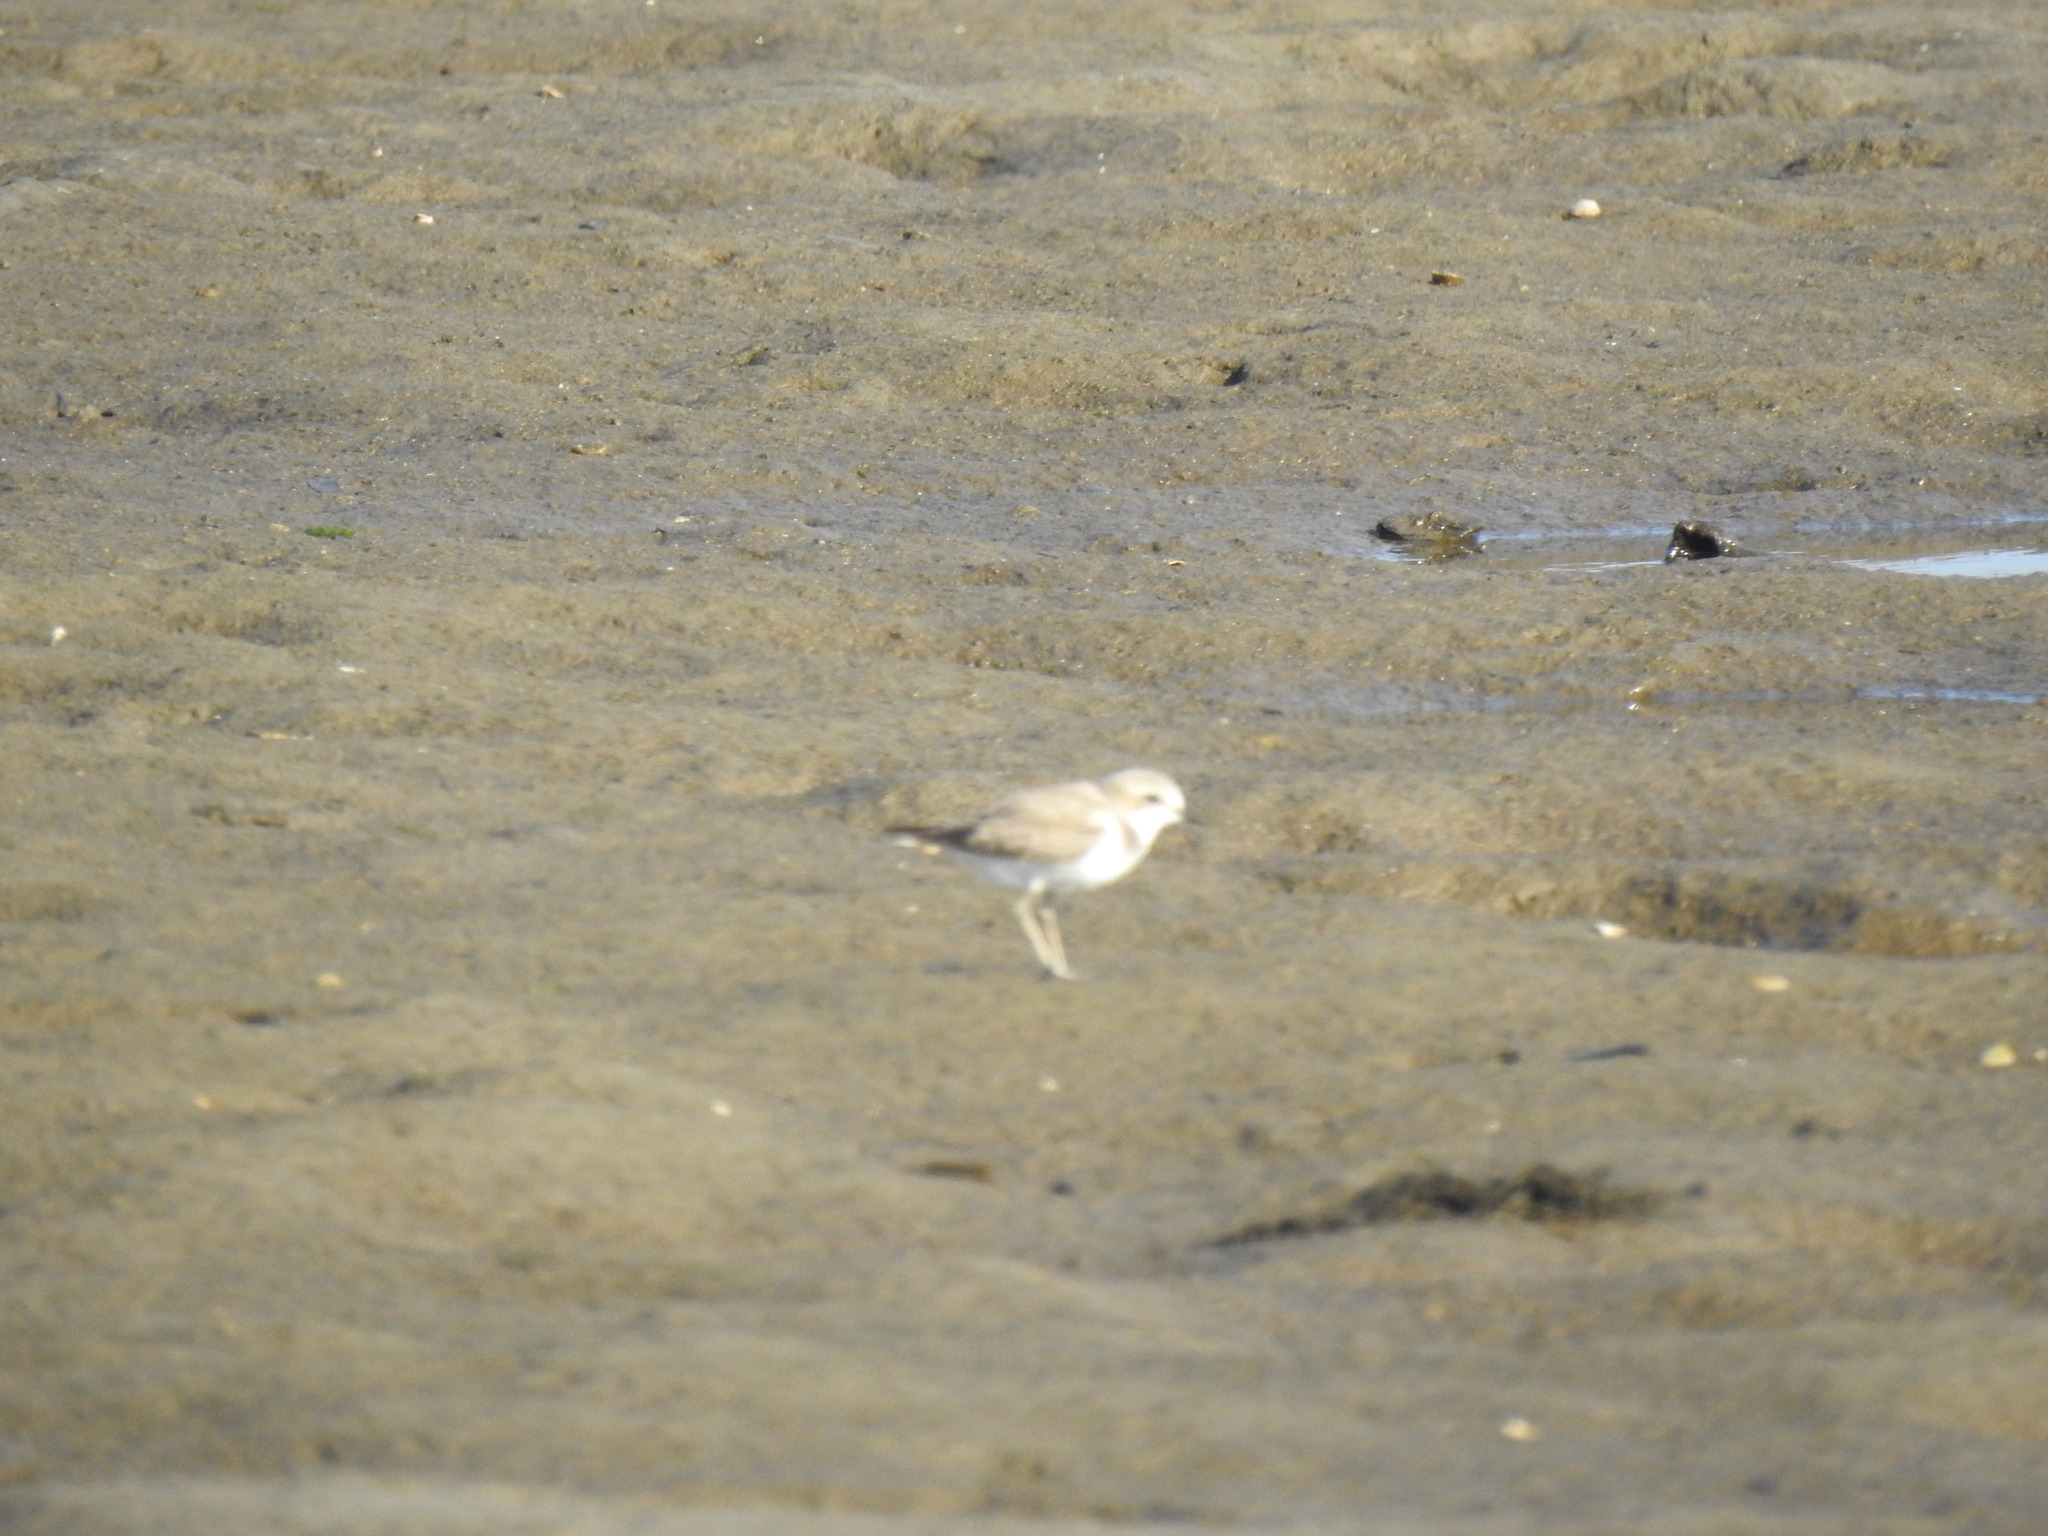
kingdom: Animalia
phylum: Chordata
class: Aves
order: Charadriiformes
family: Charadriidae
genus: Charadrius
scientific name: Charadrius alexandrinus
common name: Kentish plover
